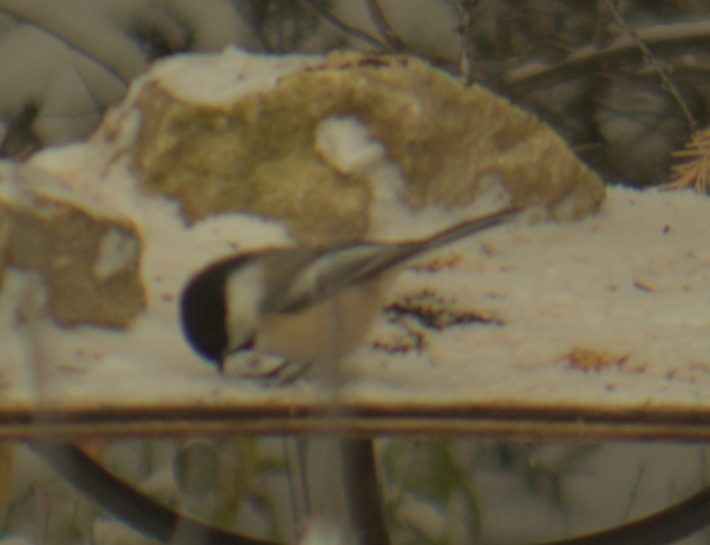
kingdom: Animalia
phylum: Chordata
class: Aves
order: Passeriformes
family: Paridae
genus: Poecile
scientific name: Poecile atricapillus
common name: Black-capped chickadee
